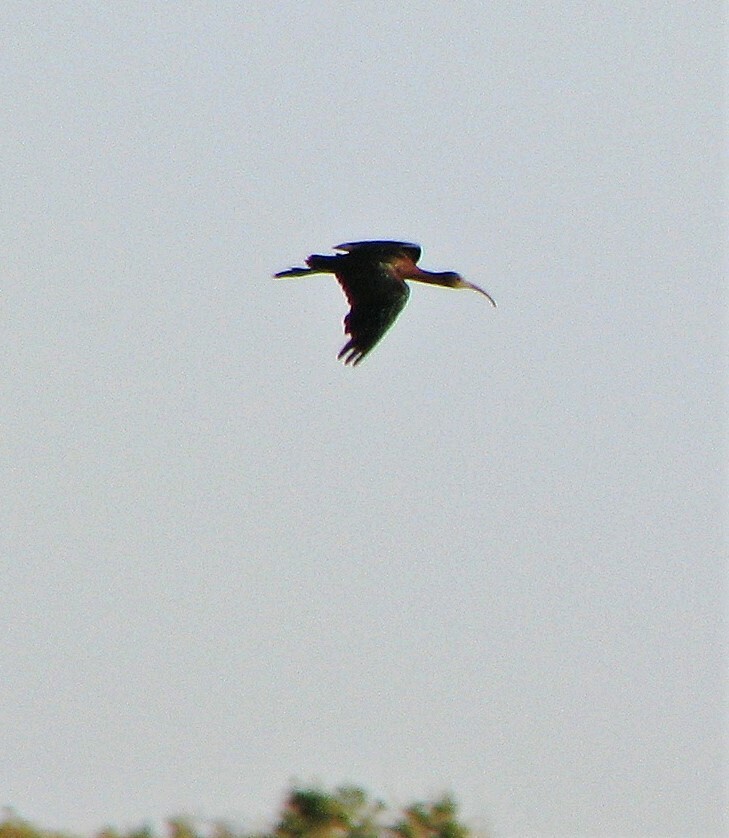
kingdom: Animalia
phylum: Chordata
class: Aves
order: Pelecaniformes
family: Threskiornithidae
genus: Plegadis
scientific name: Plegadis chihi
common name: White-faced ibis
